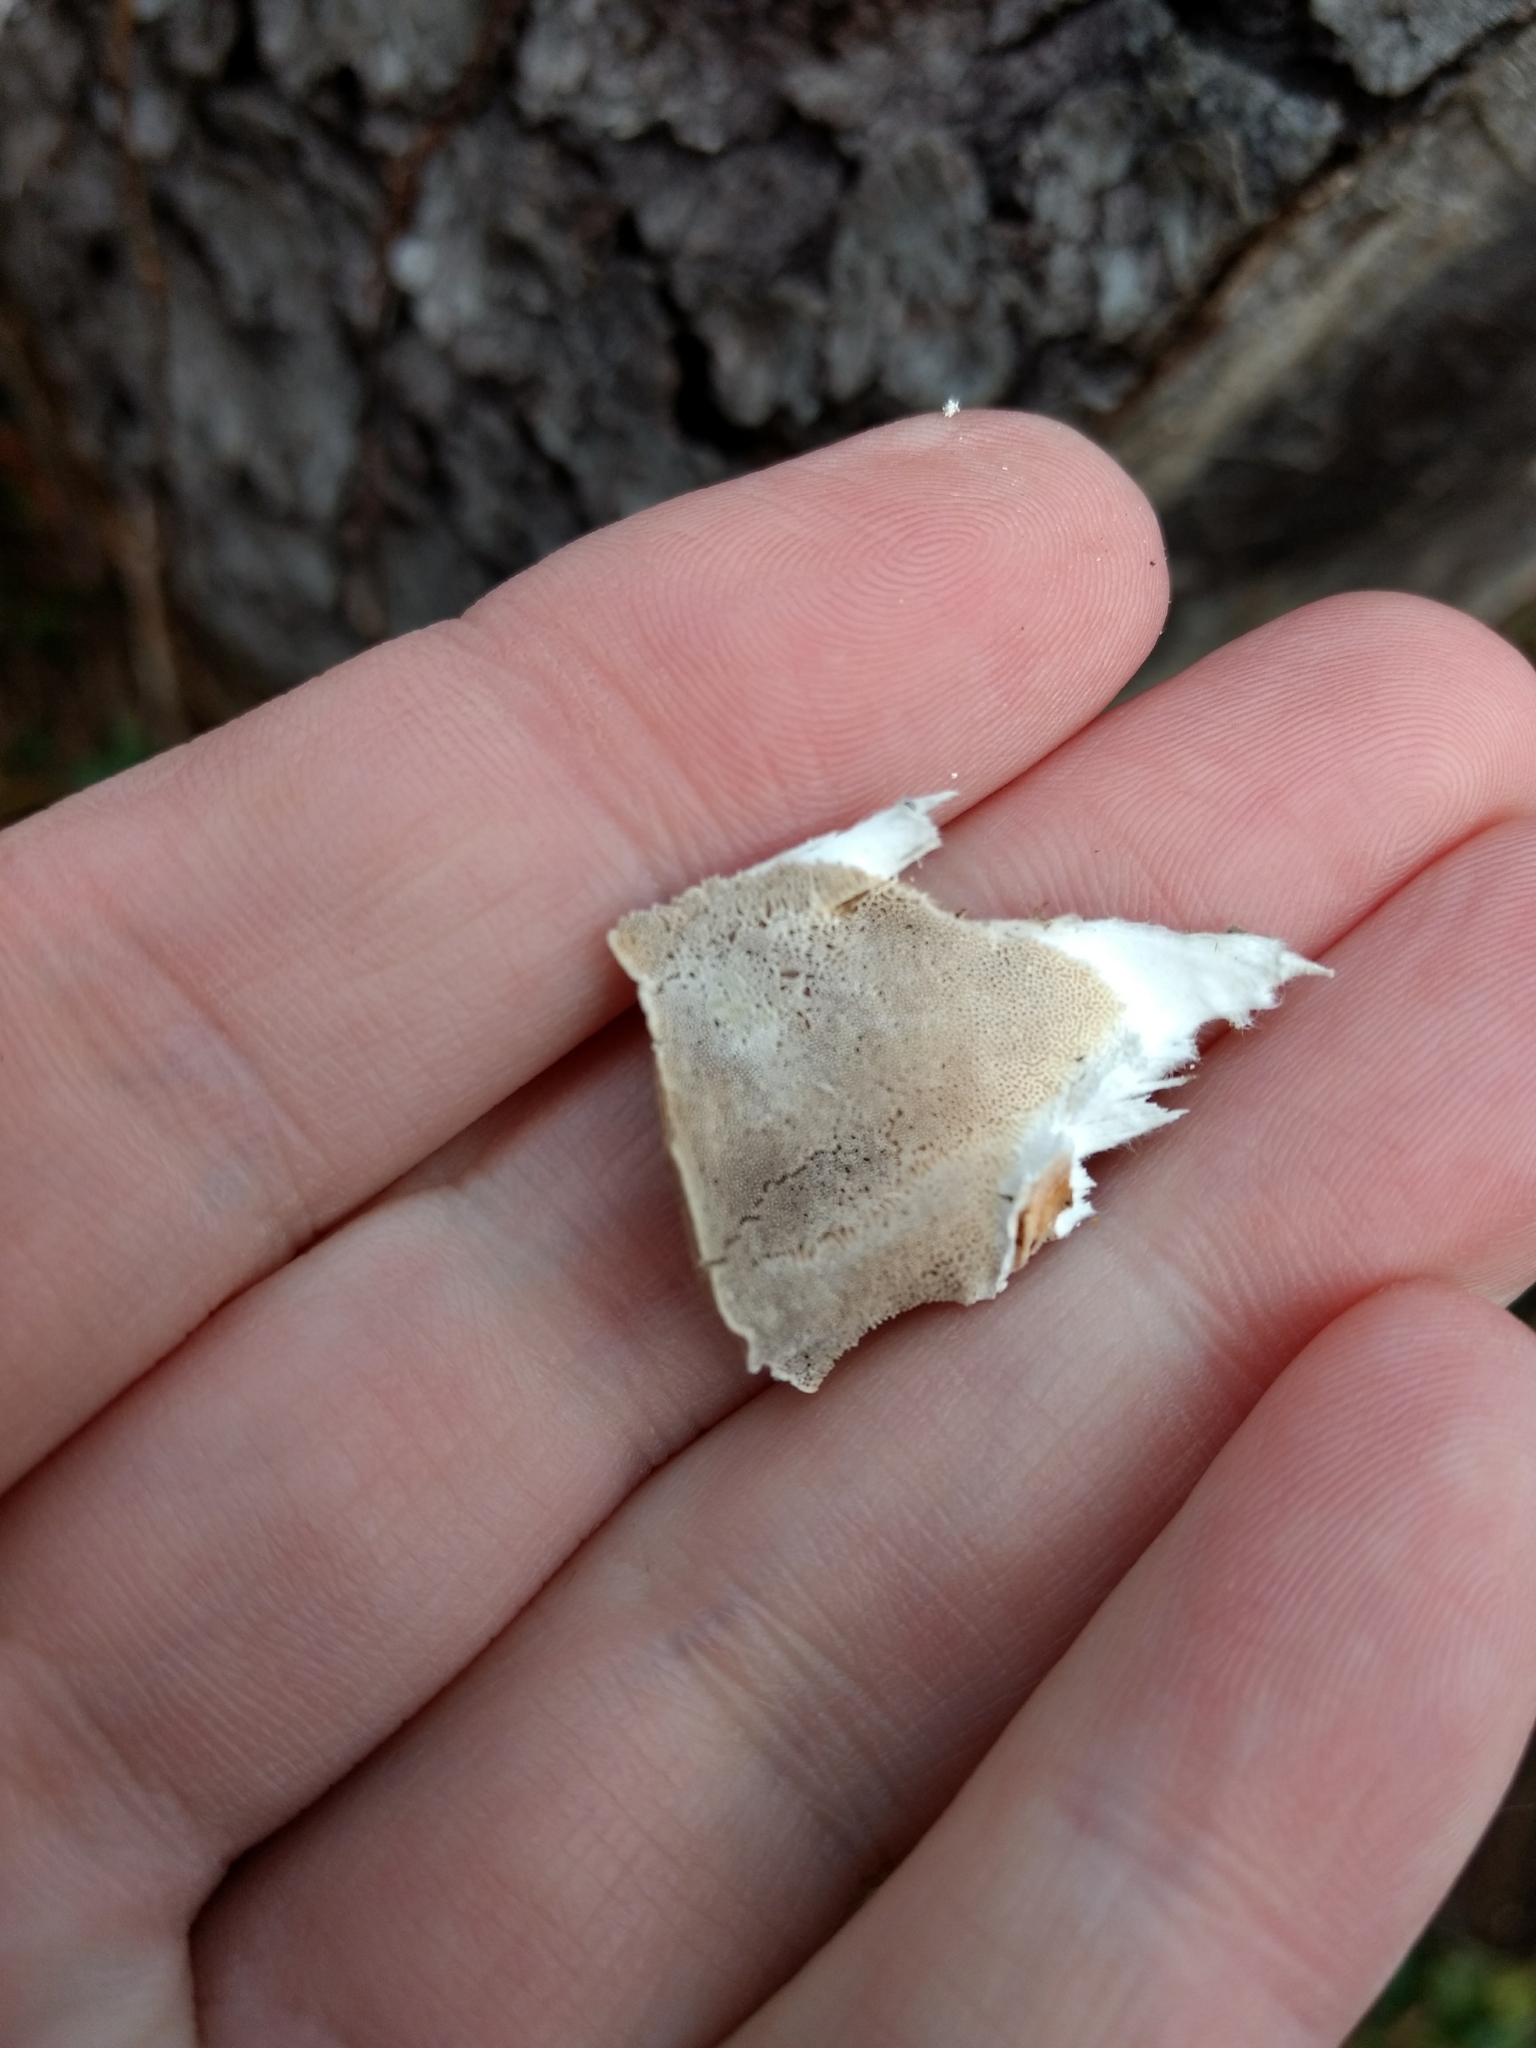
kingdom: Fungi
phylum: Basidiomycota
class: Agaricomycetes
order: Polyporales
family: Polyporaceae
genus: Trametes
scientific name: Trametes versicolor
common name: Turkeytail
